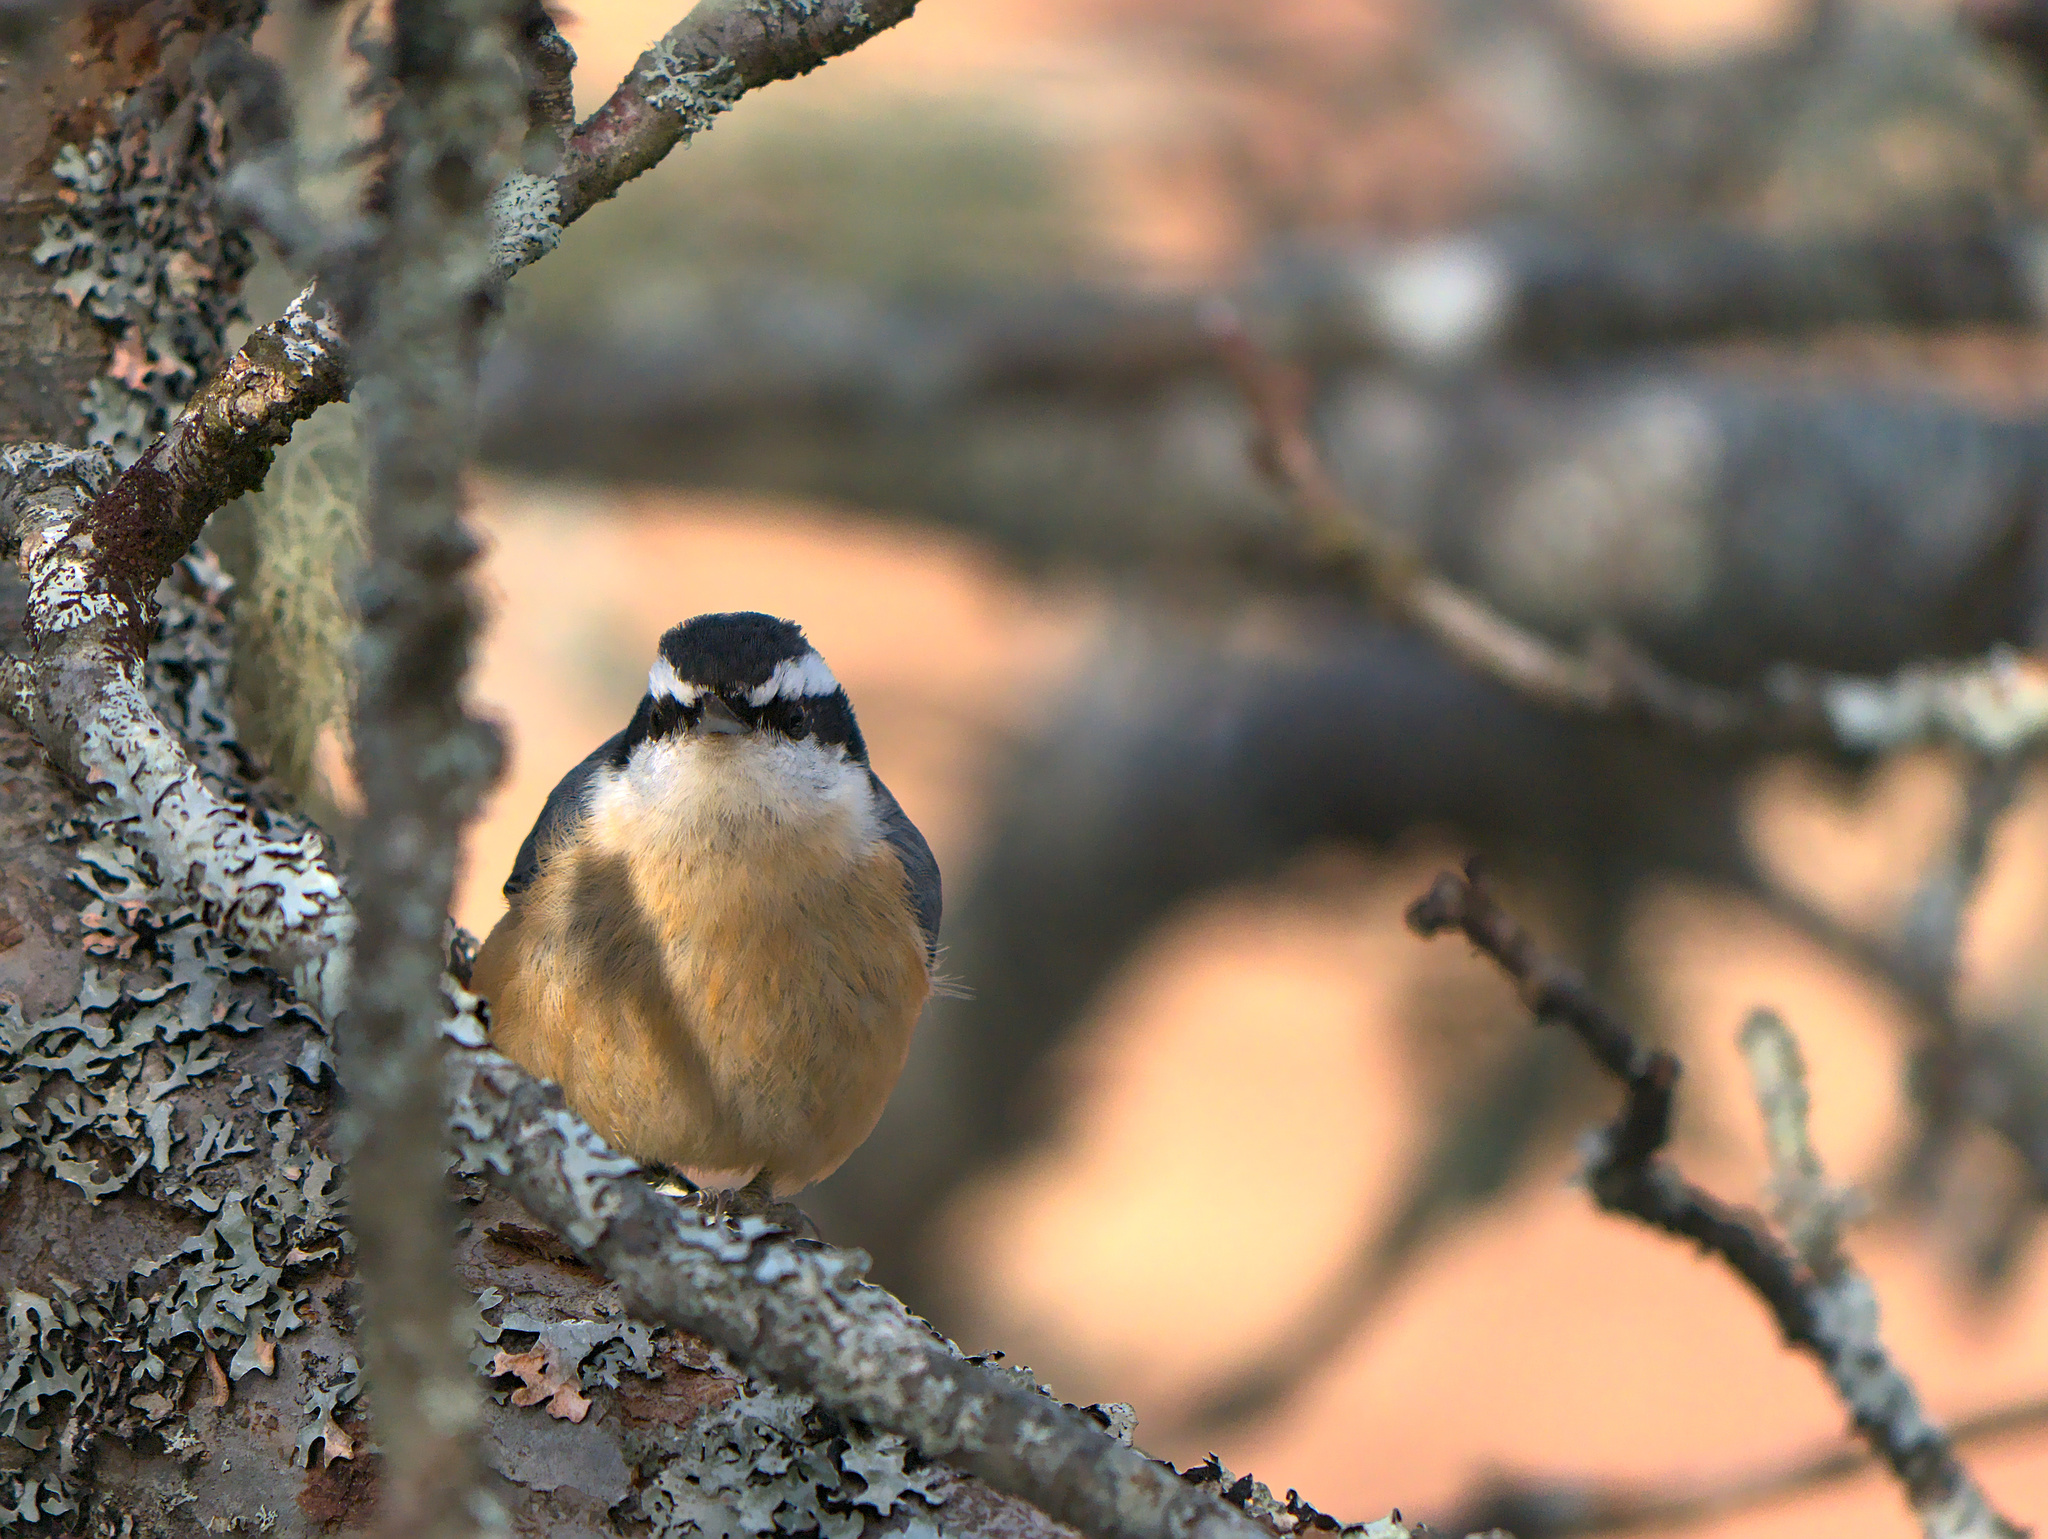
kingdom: Animalia
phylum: Chordata
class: Aves
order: Passeriformes
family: Sittidae
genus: Sitta
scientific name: Sitta canadensis
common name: Red-breasted nuthatch
